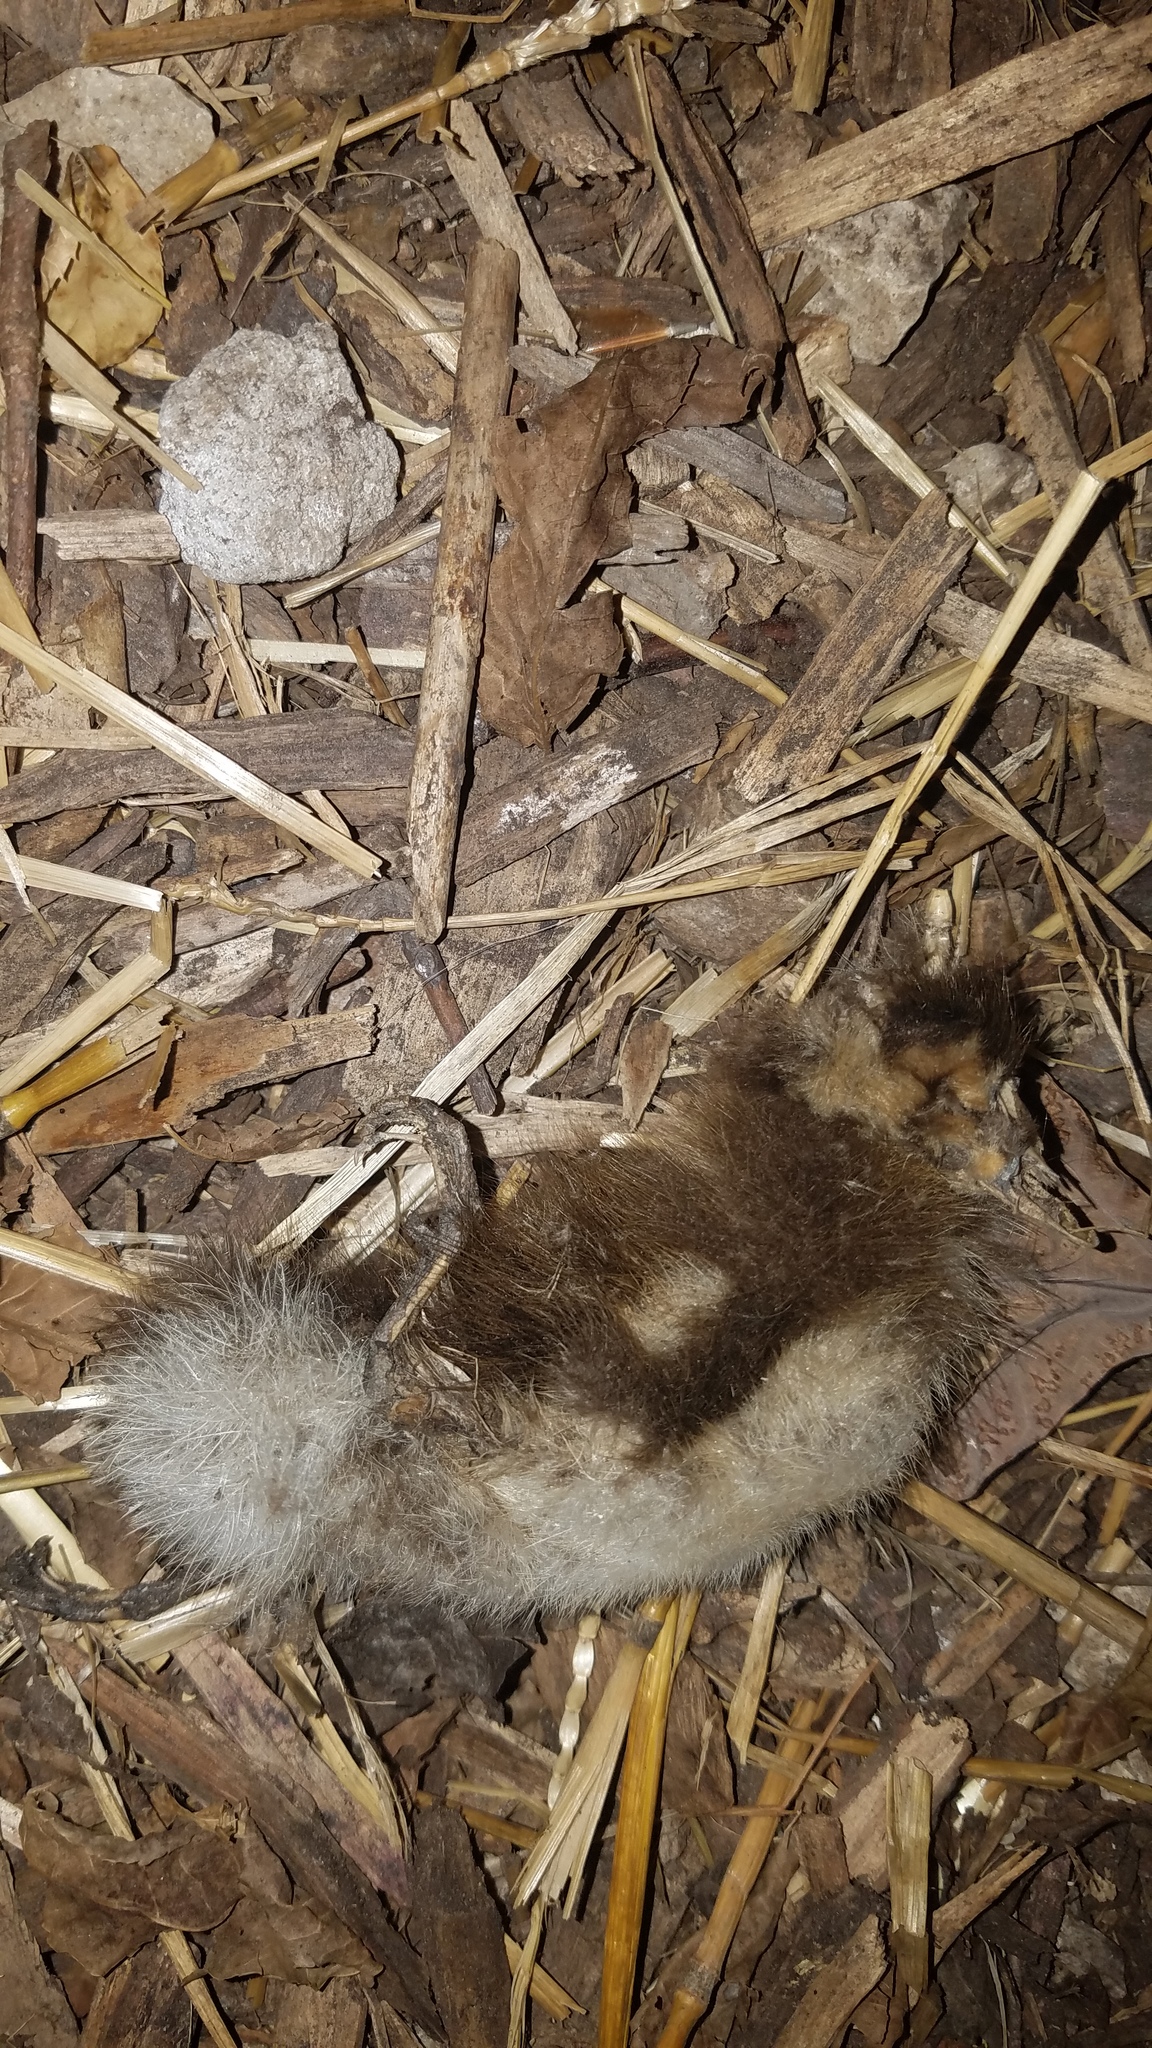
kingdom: Animalia
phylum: Chordata
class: Aves
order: Anseriformes
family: Anatidae
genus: Anas
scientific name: Anas platyrhynchos
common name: Mallard
